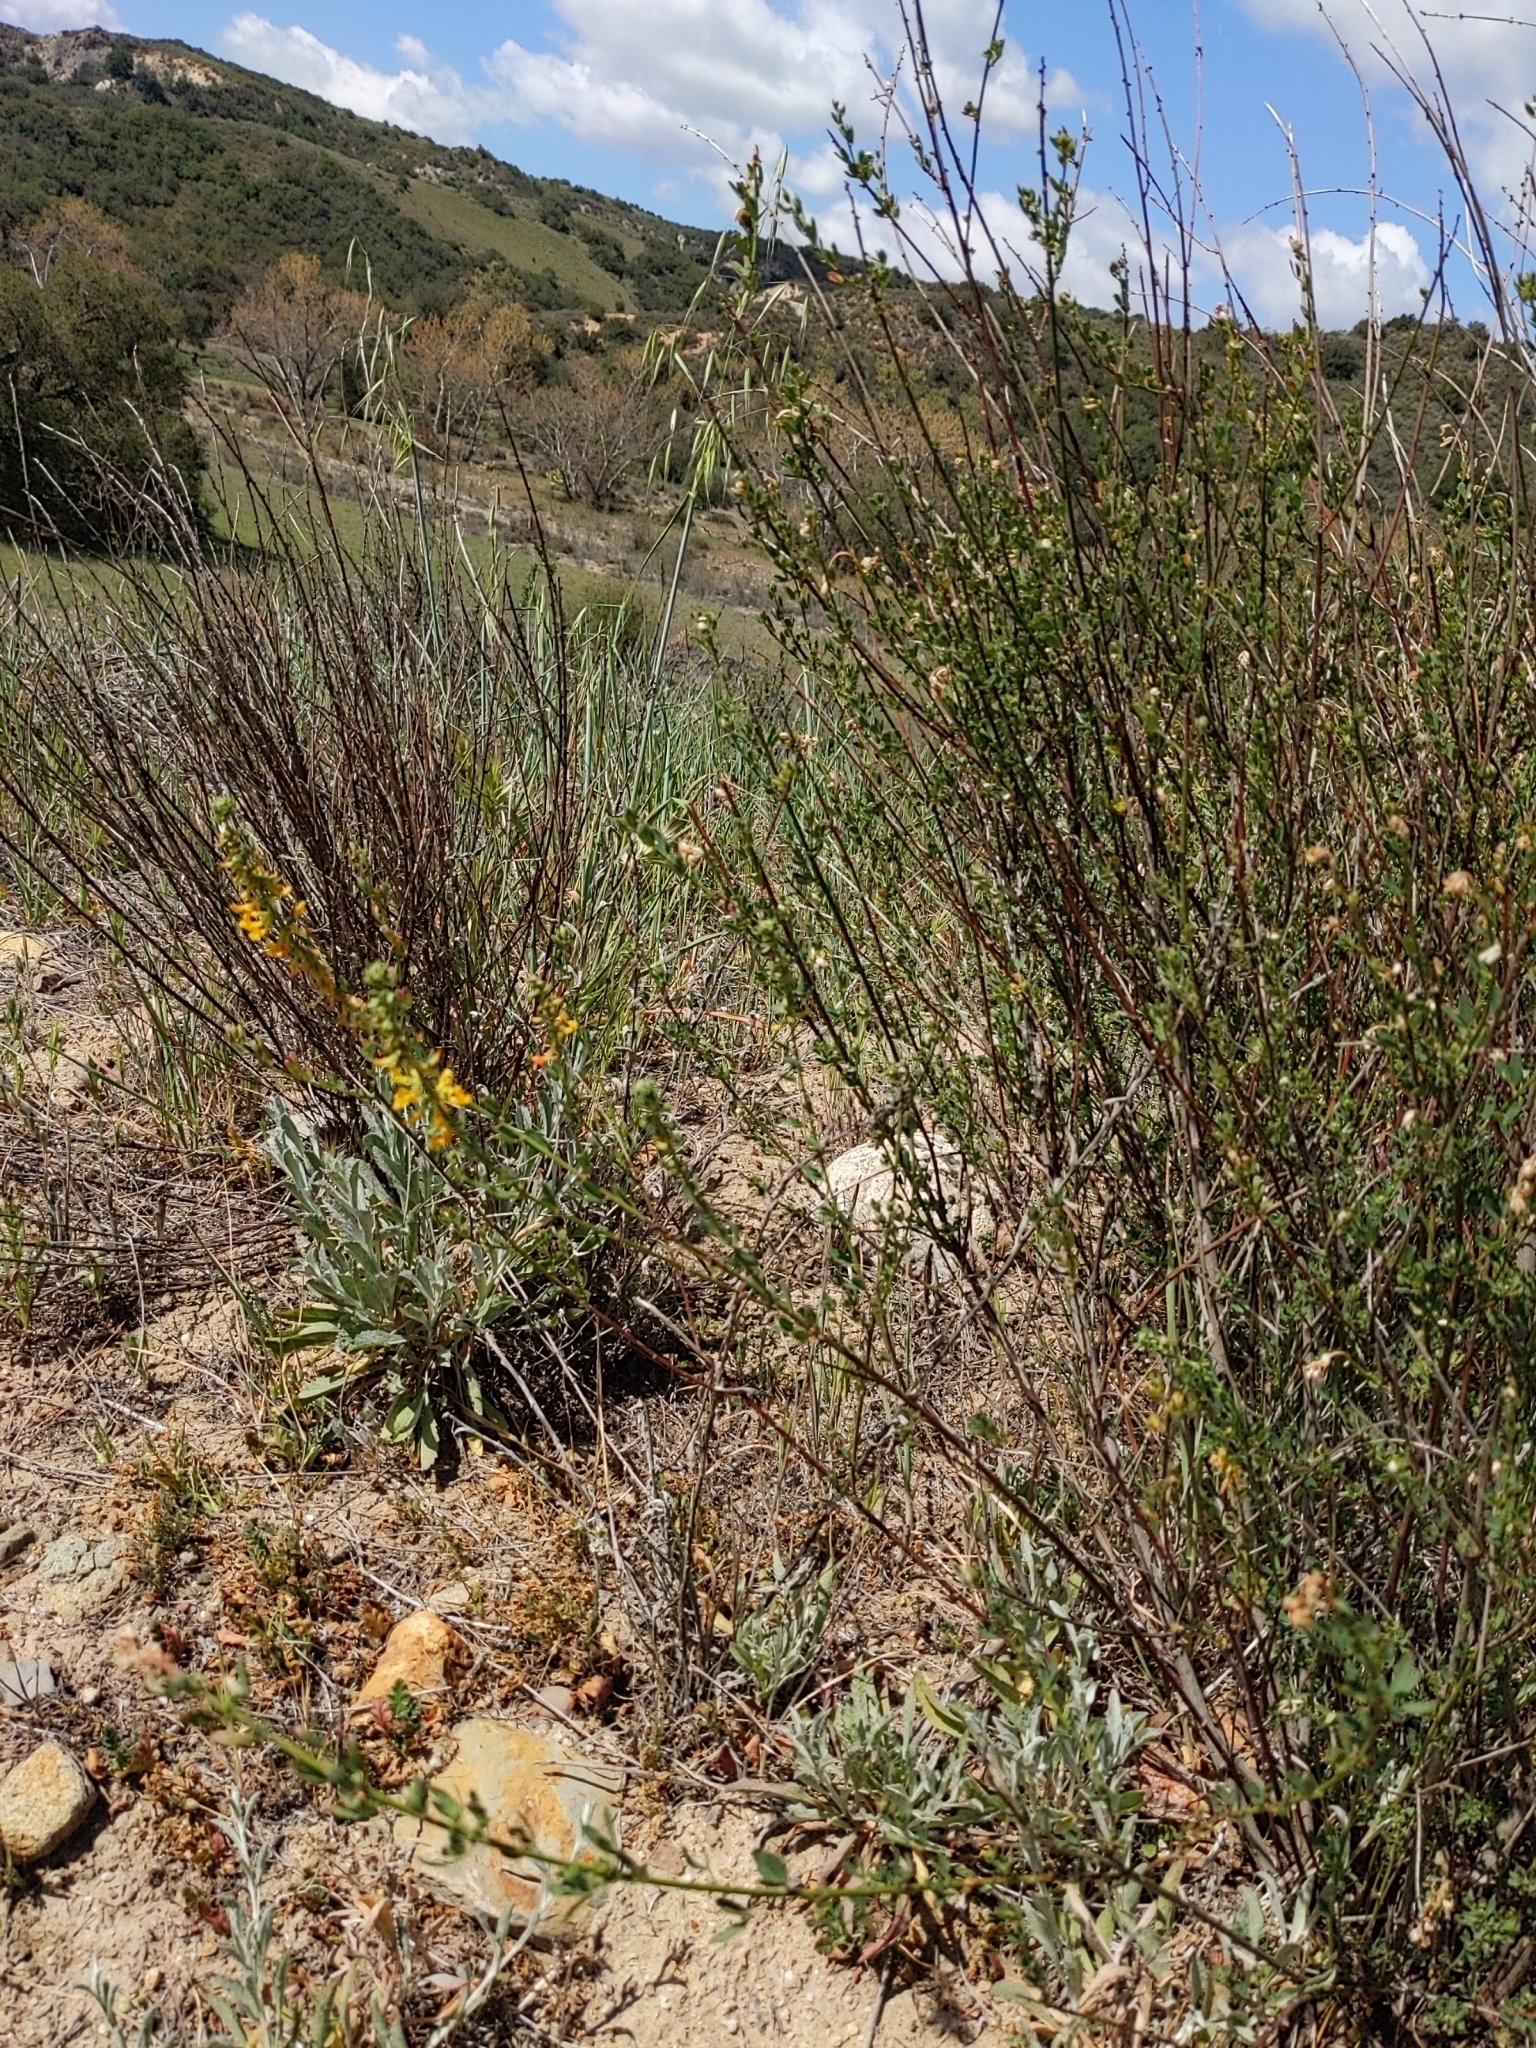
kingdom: Plantae
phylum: Tracheophyta
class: Magnoliopsida
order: Fabales
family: Fabaceae
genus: Acmispon
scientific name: Acmispon glaber
